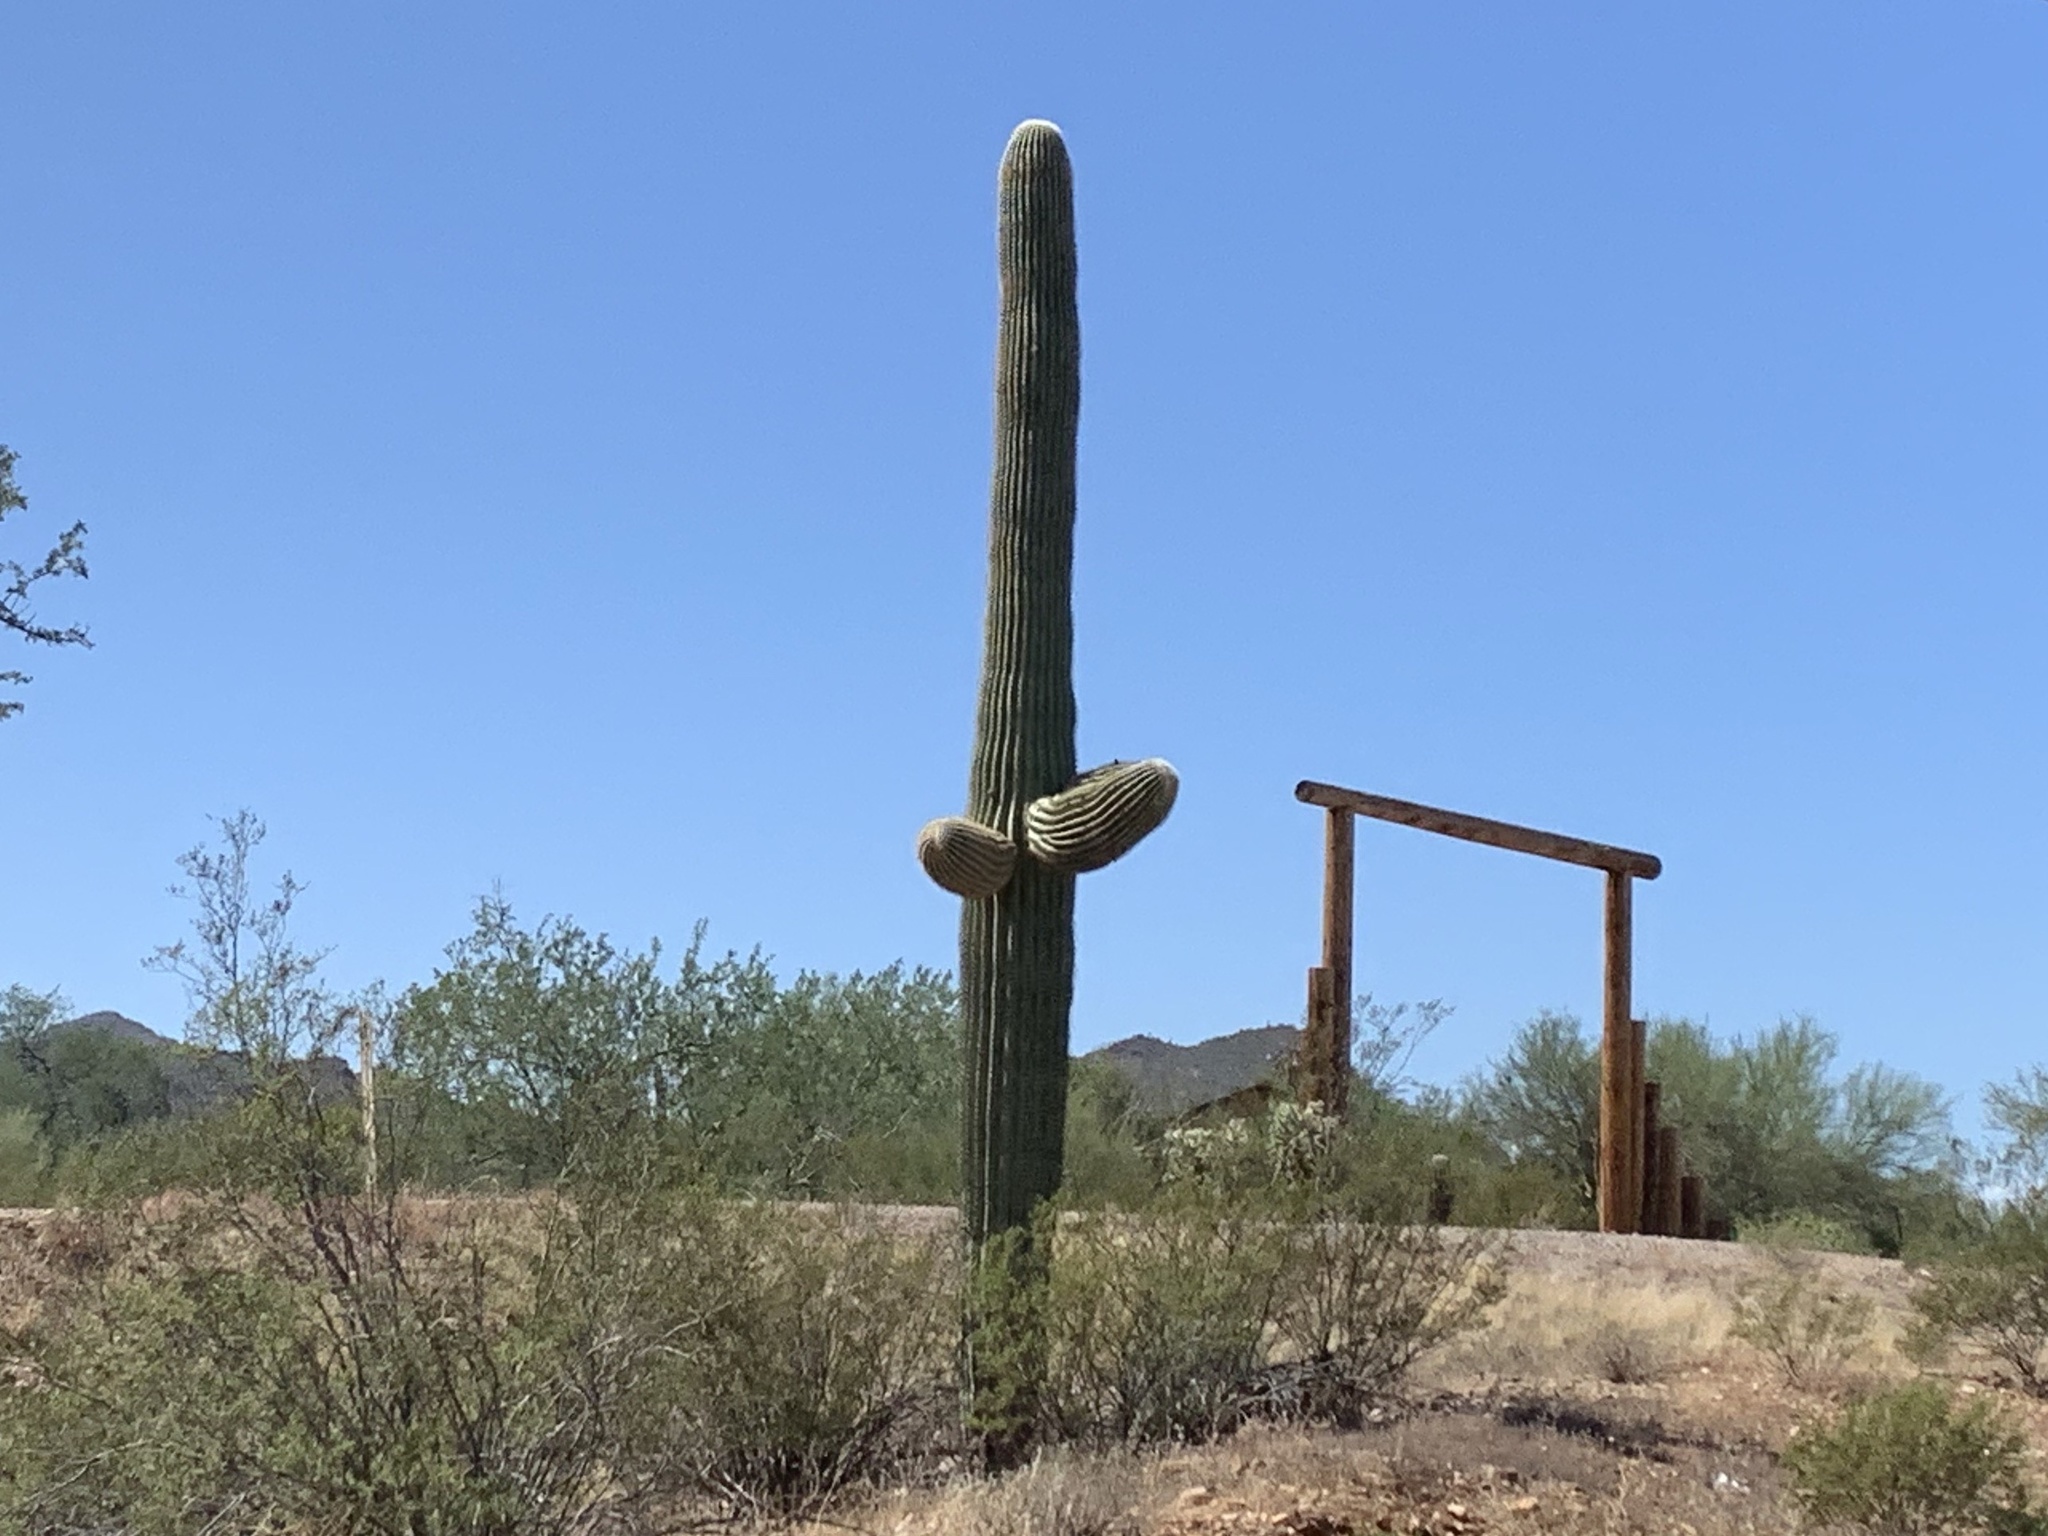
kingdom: Plantae
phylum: Tracheophyta
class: Magnoliopsida
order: Caryophyllales
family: Cactaceae
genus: Carnegiea
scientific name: Carnegiea gigantea
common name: Saguaro
